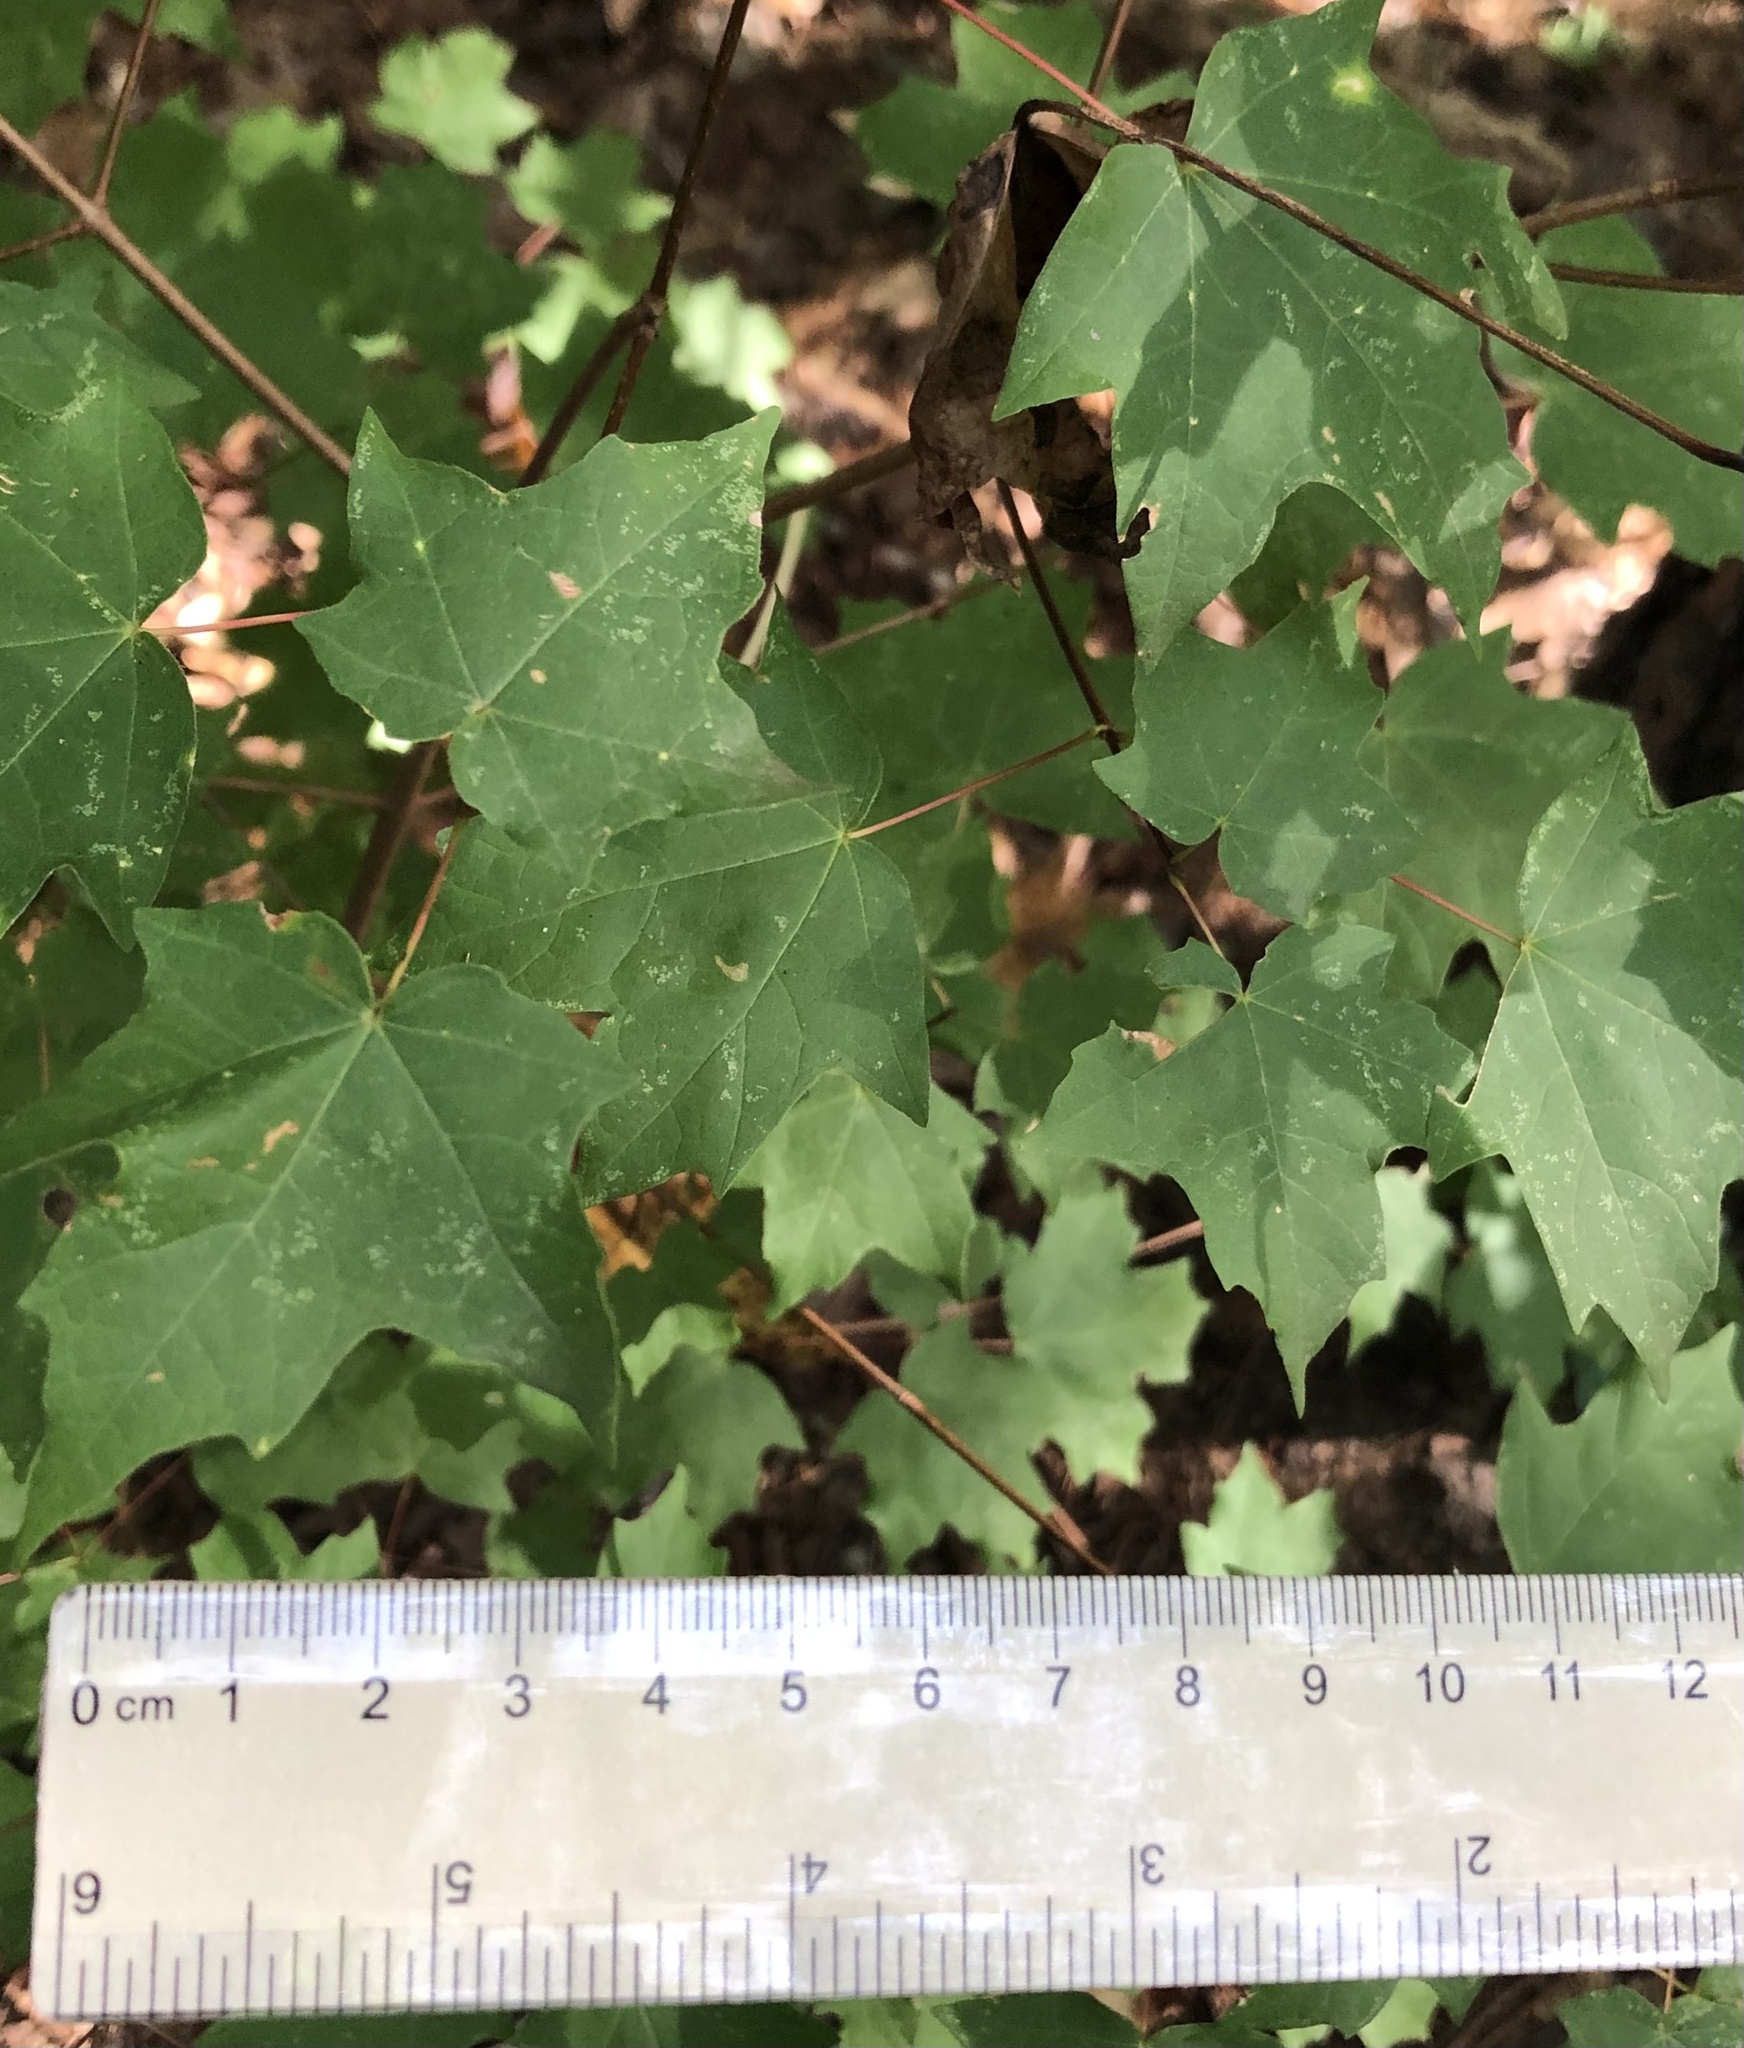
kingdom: Plantae
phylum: Tracheophyta
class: Magnoliopsida
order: Sapindales
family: Sapindaceae
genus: Acer
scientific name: Acer leucoderme
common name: Chalk maple
